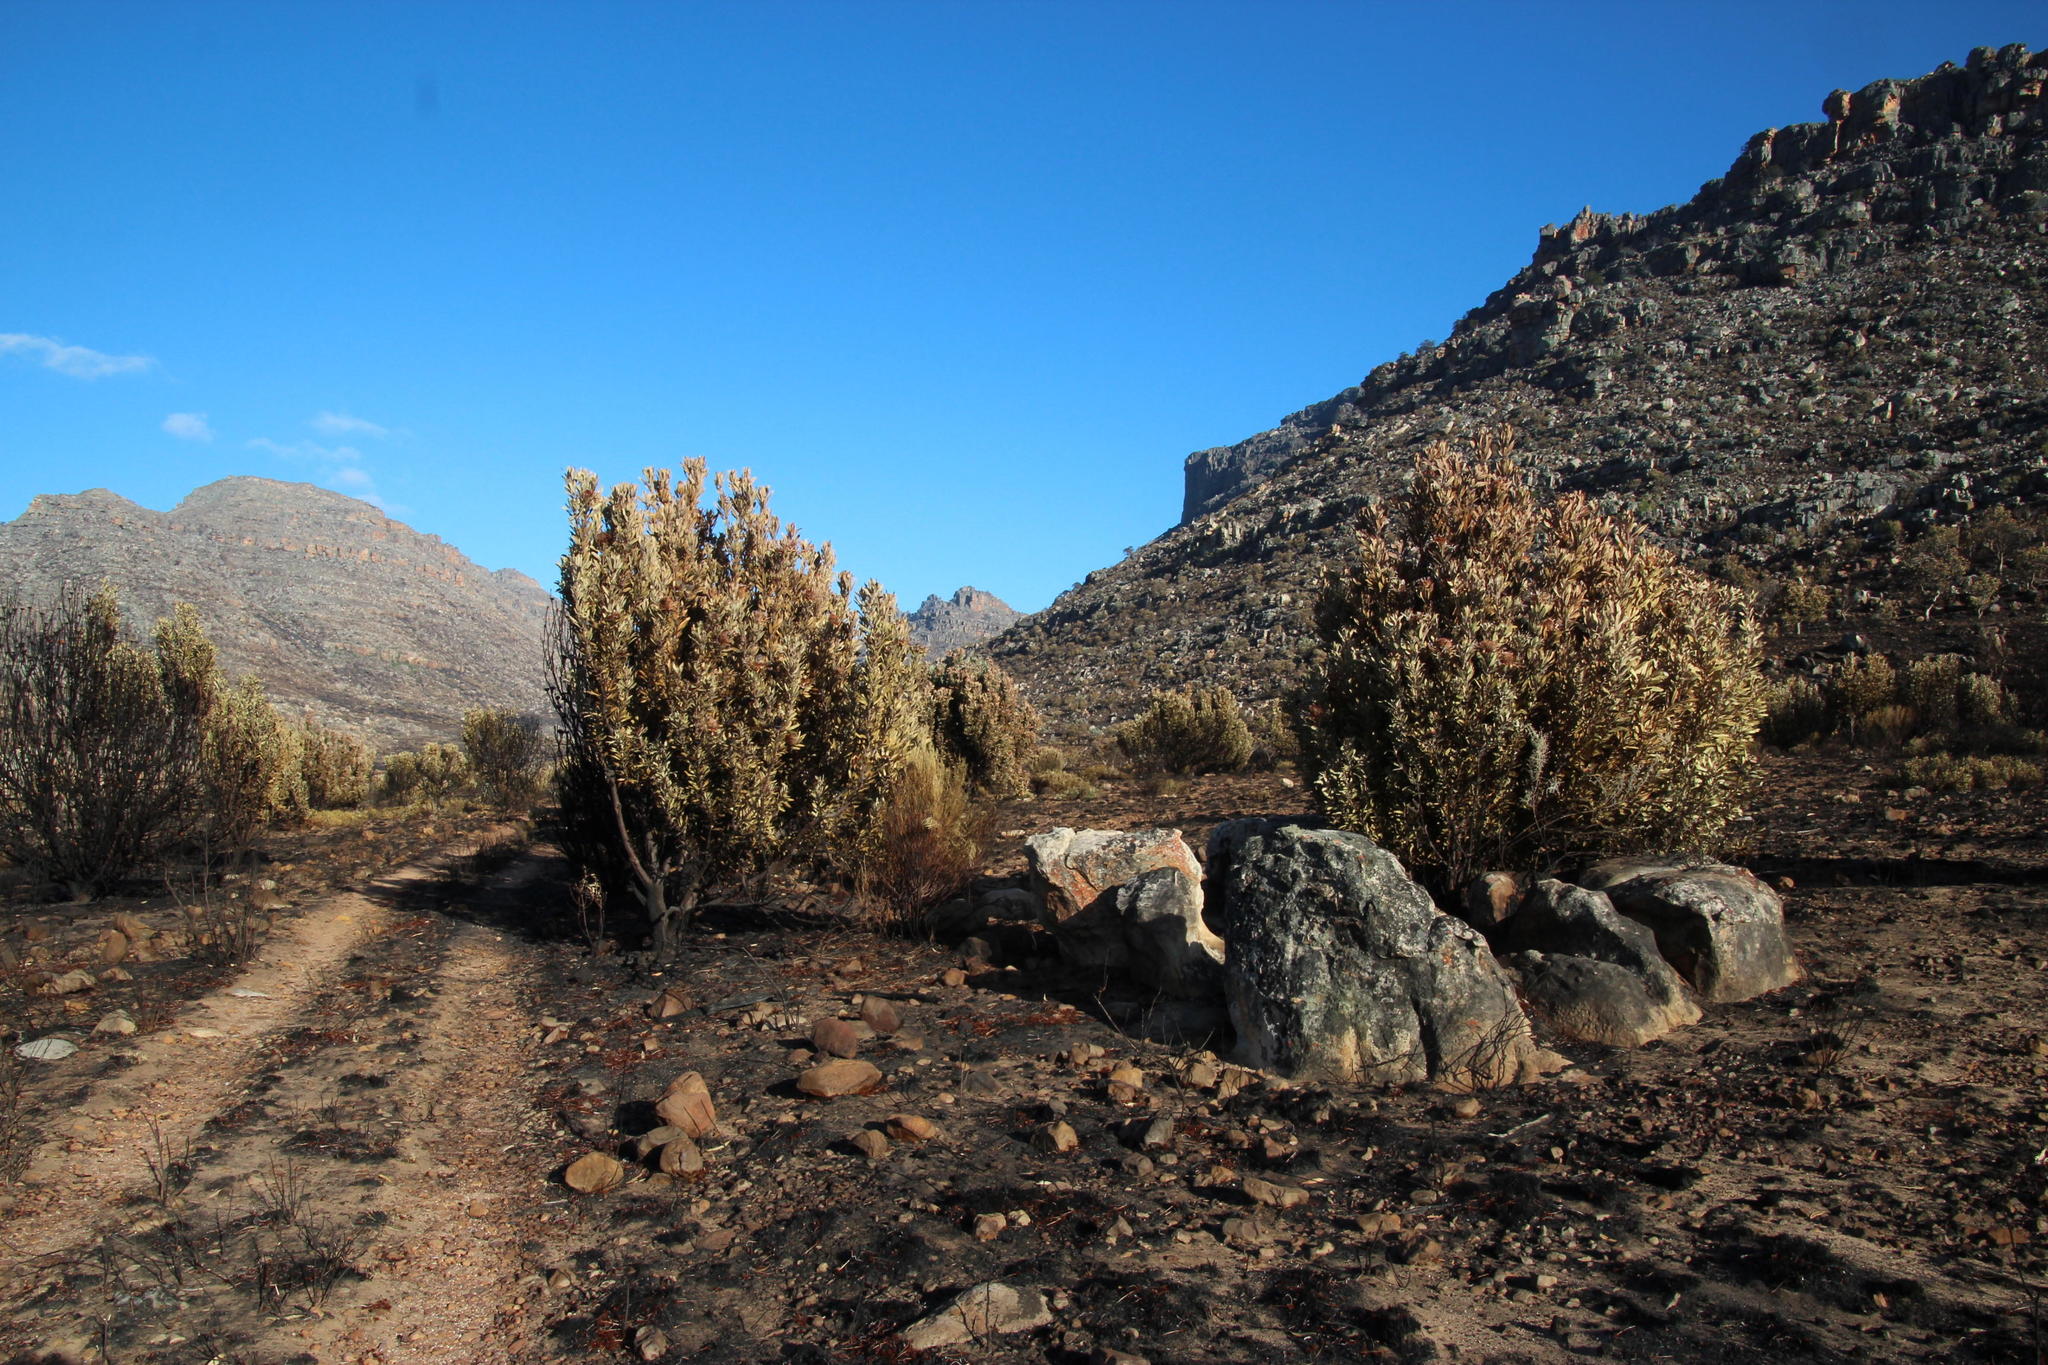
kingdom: Plantae
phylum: Tracheophyta
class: Magnoliopsida
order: Proteales
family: Proteaceae
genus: Protea
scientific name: Protea laurifolia
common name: Grey-leaf sugarbsh
